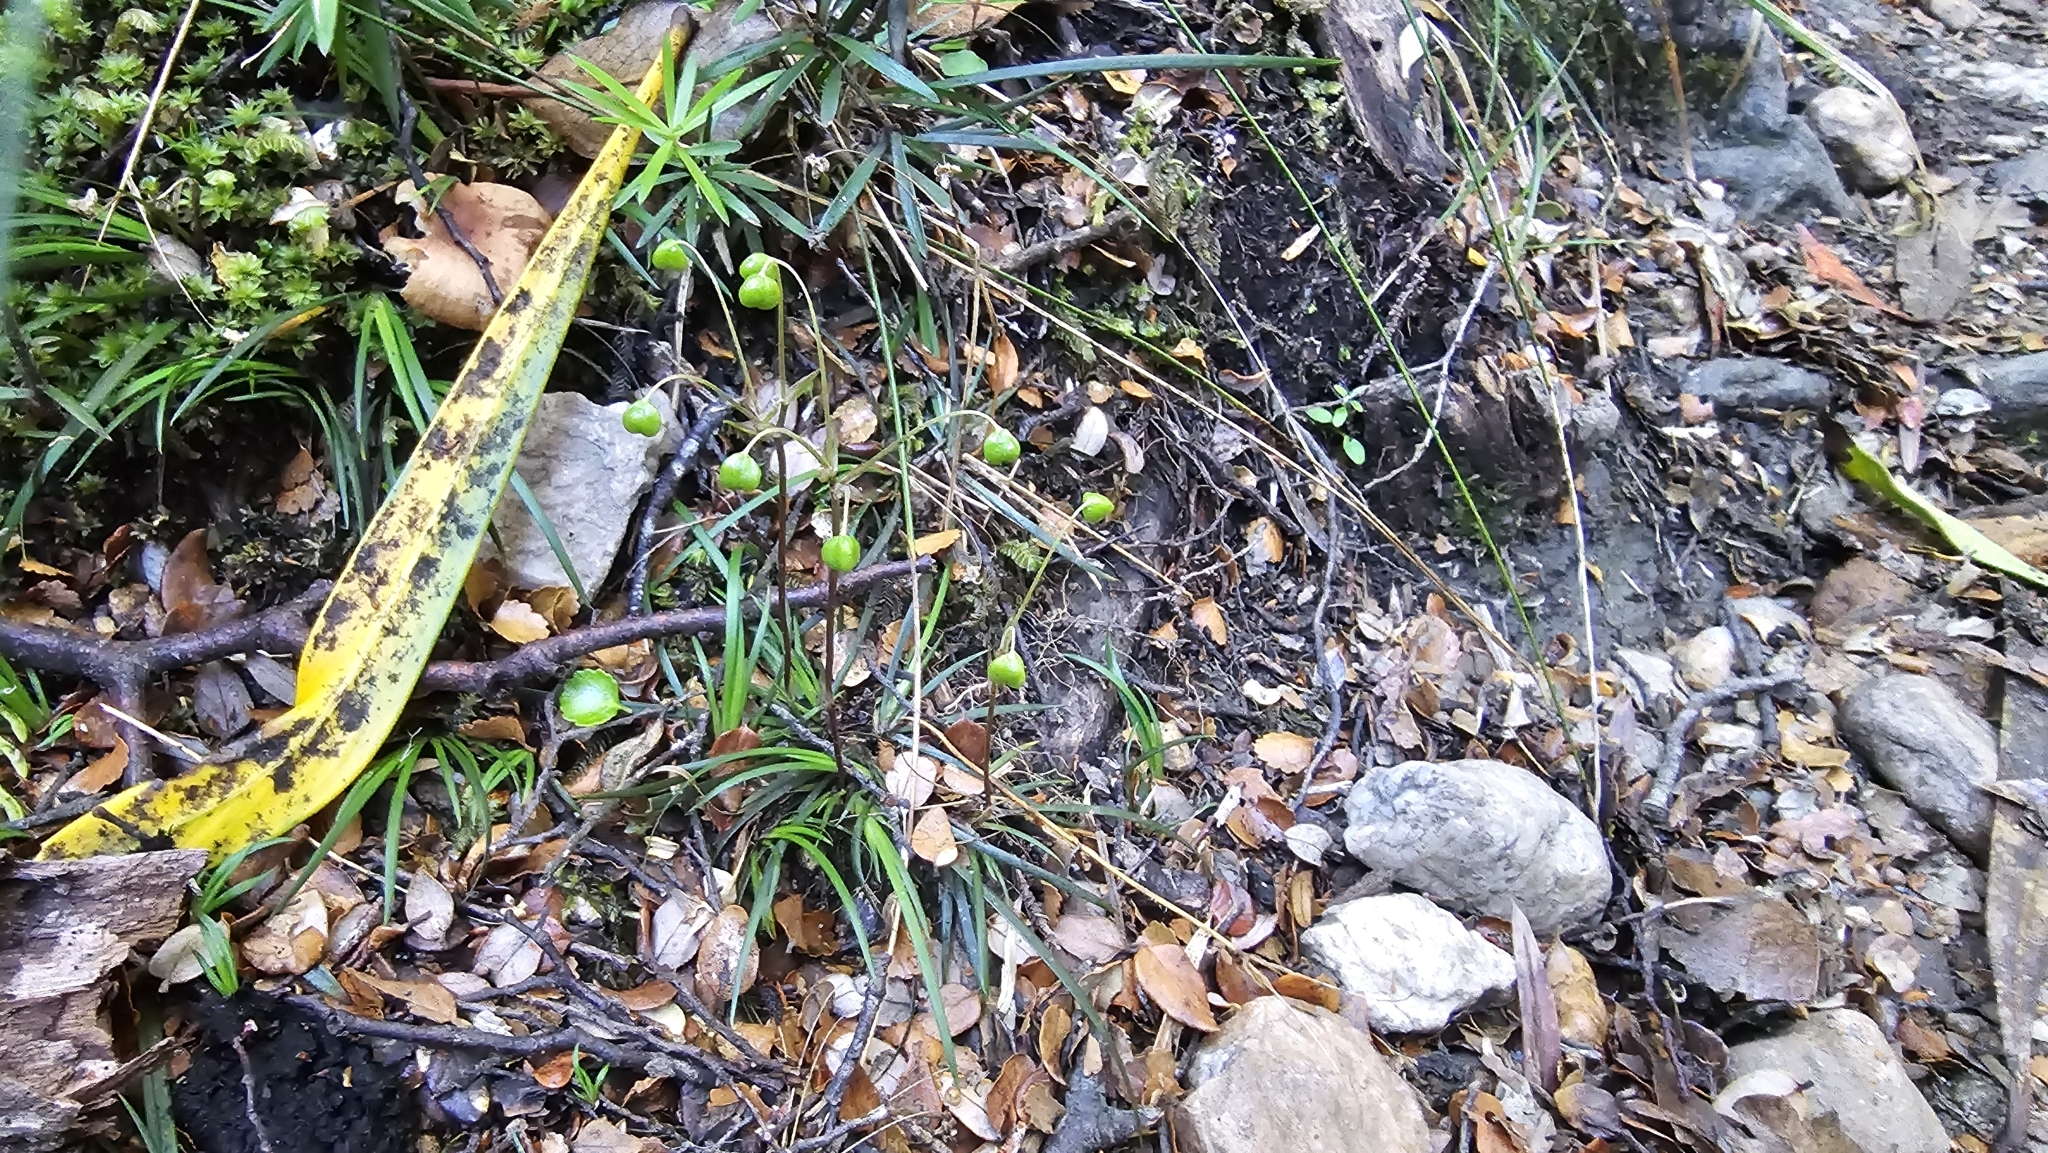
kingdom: Plantae
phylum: Tracheophyta
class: Liliopsida
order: Asparagales
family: Iridaceae
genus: Libertia
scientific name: Libertia micrantha
